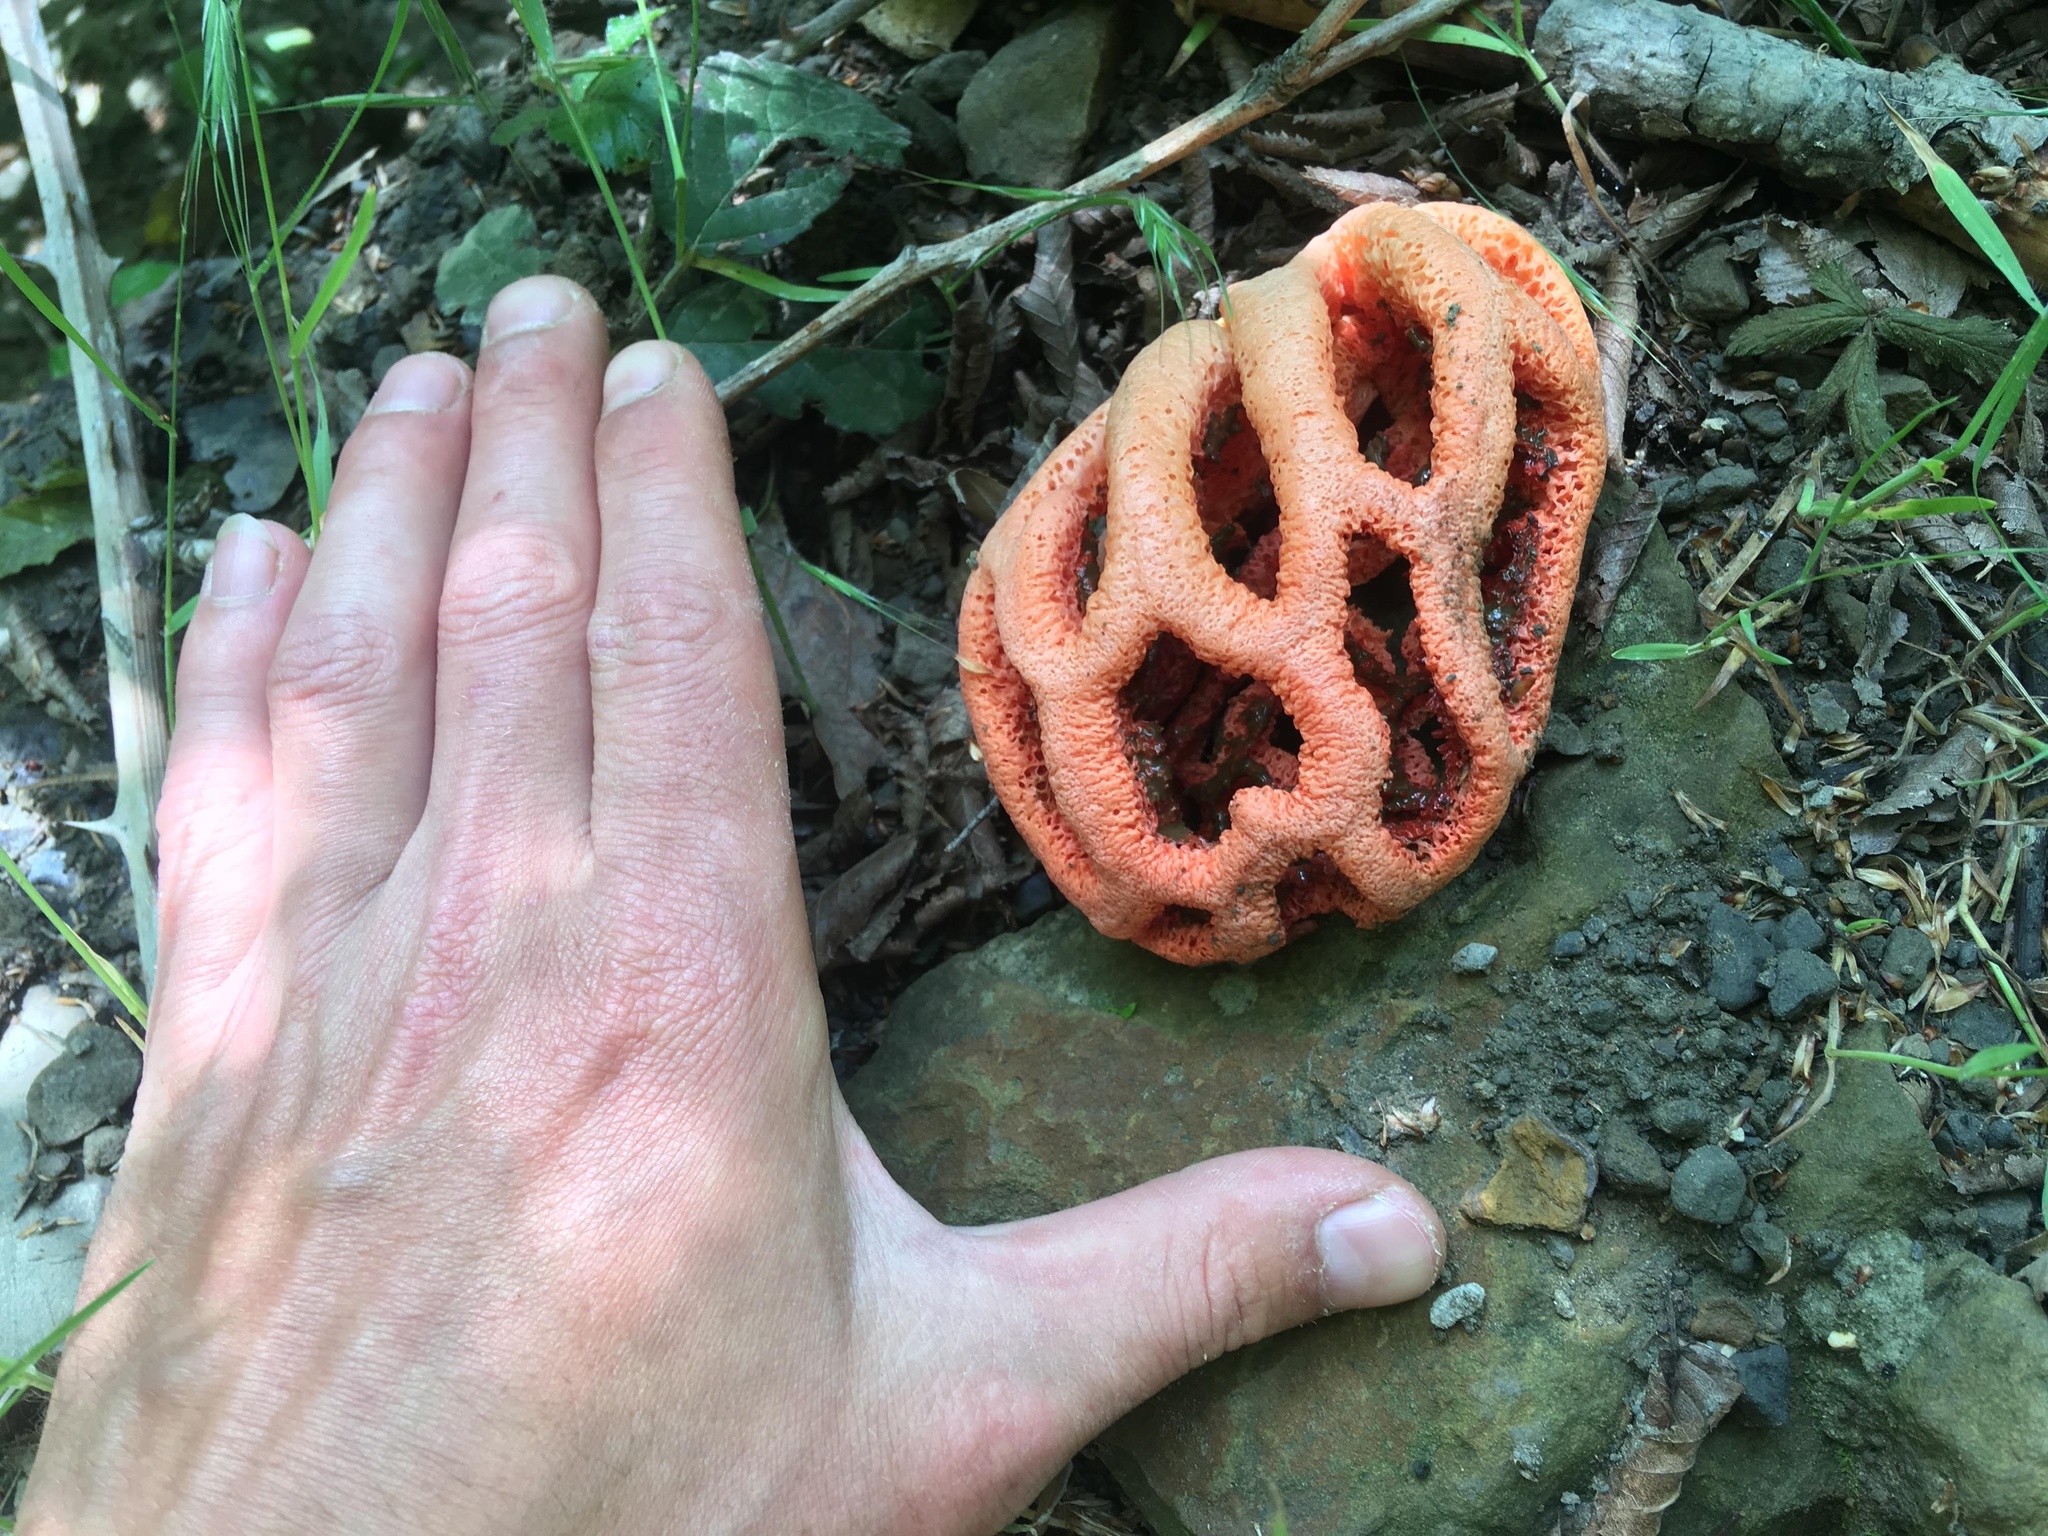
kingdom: Fungi
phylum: Basidiomycota
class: Agaricomycetes
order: Phallales
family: Phallaceae
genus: Clathrus
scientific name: Clathrus ruber
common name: Red cage
